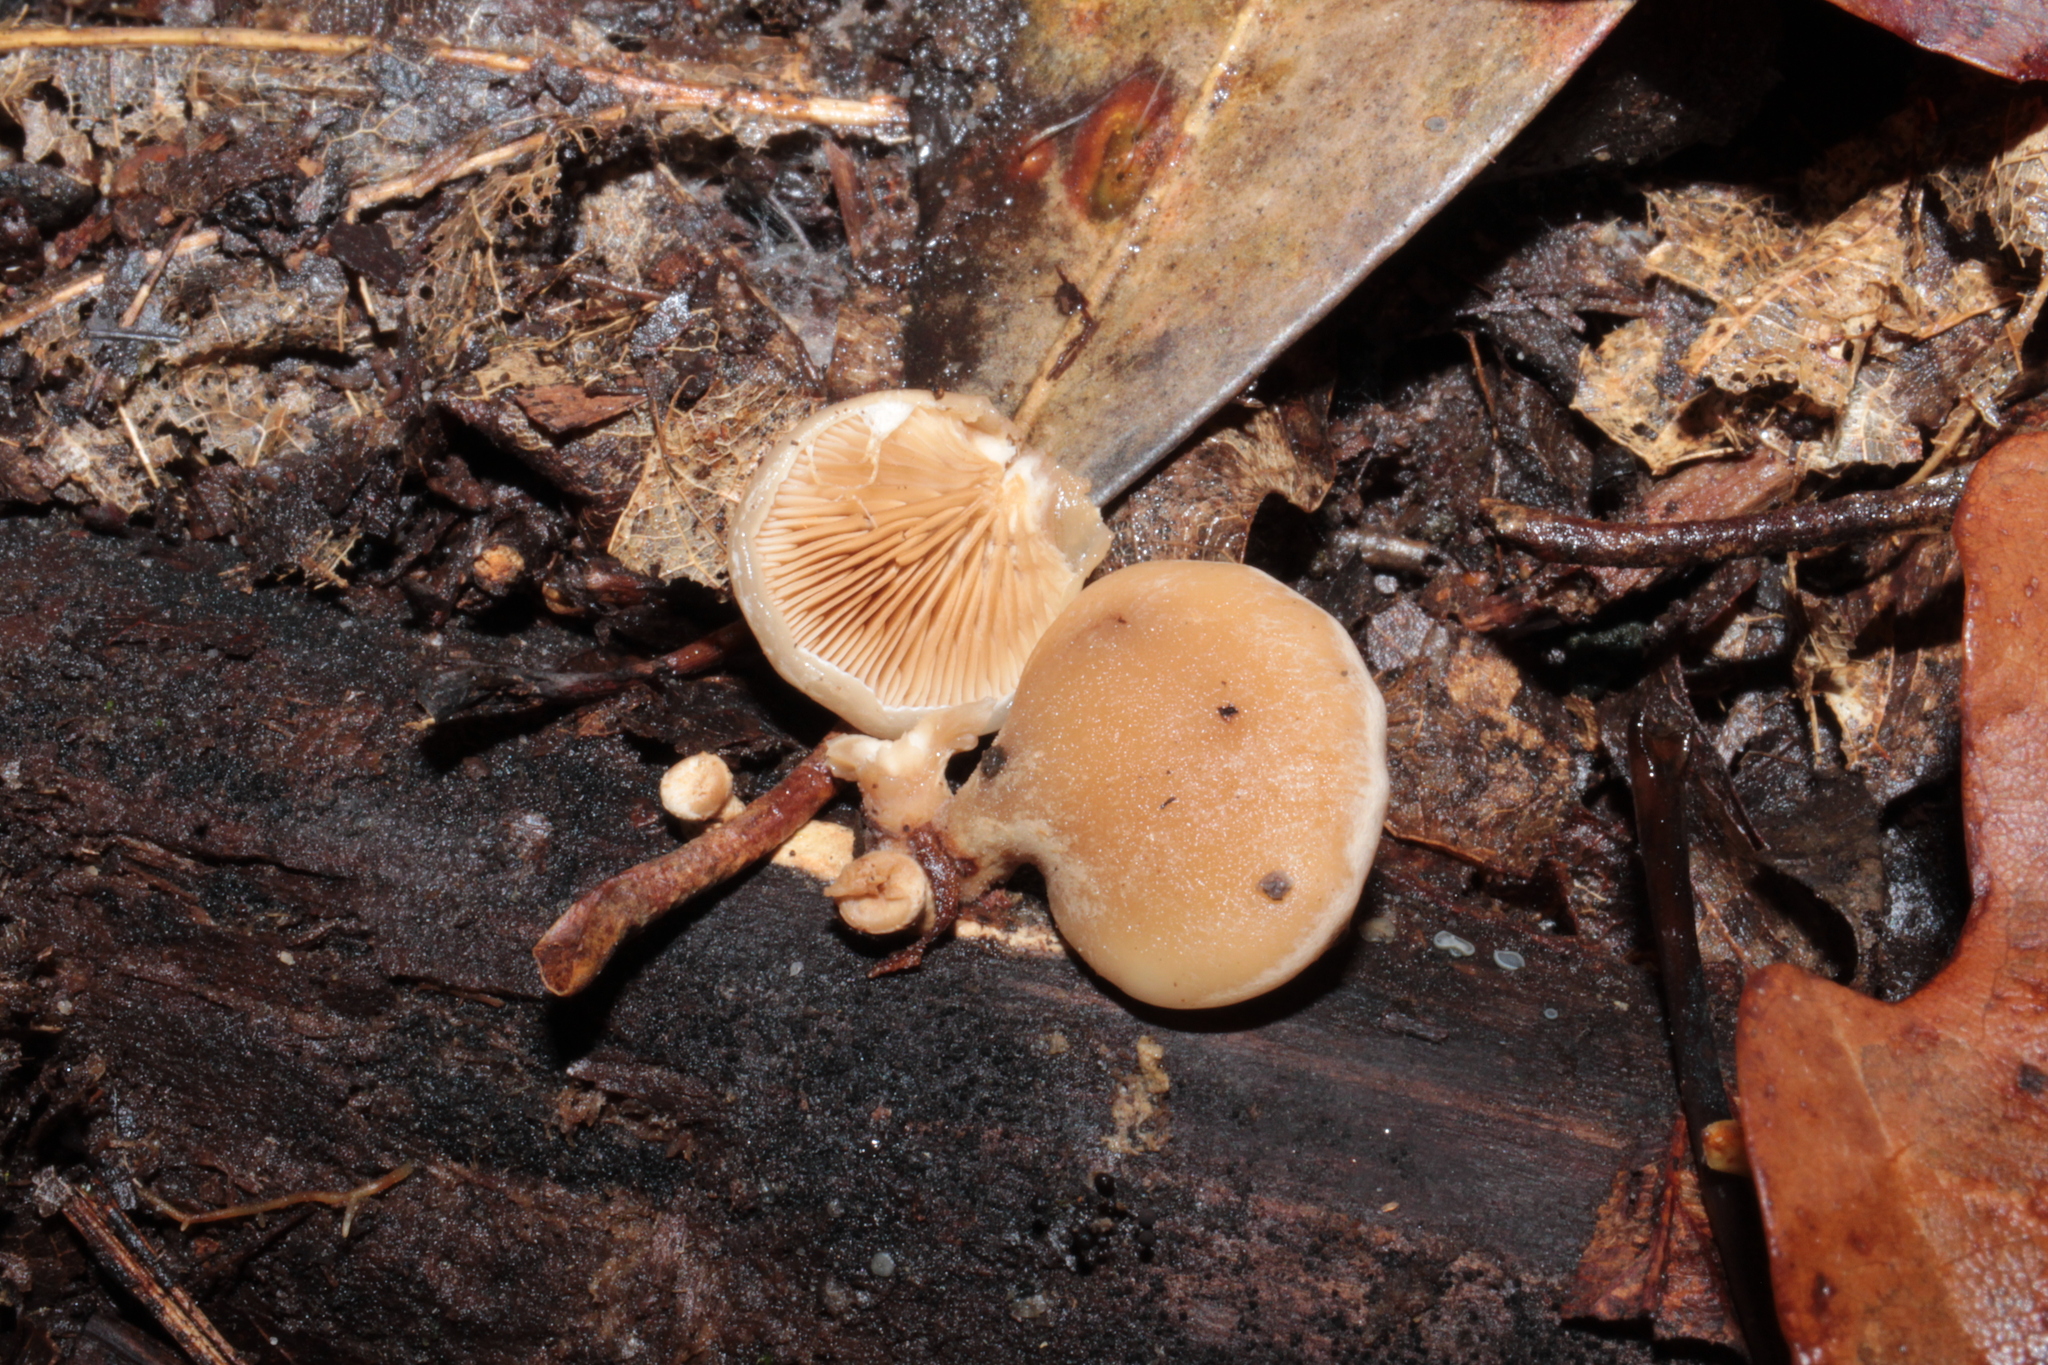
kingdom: Fungi
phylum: Basidiomycota
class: Agaricomycetes
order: Agaricales
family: Mycenaceae
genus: Tectella
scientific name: Tectella patellaris
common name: Veiled panus
